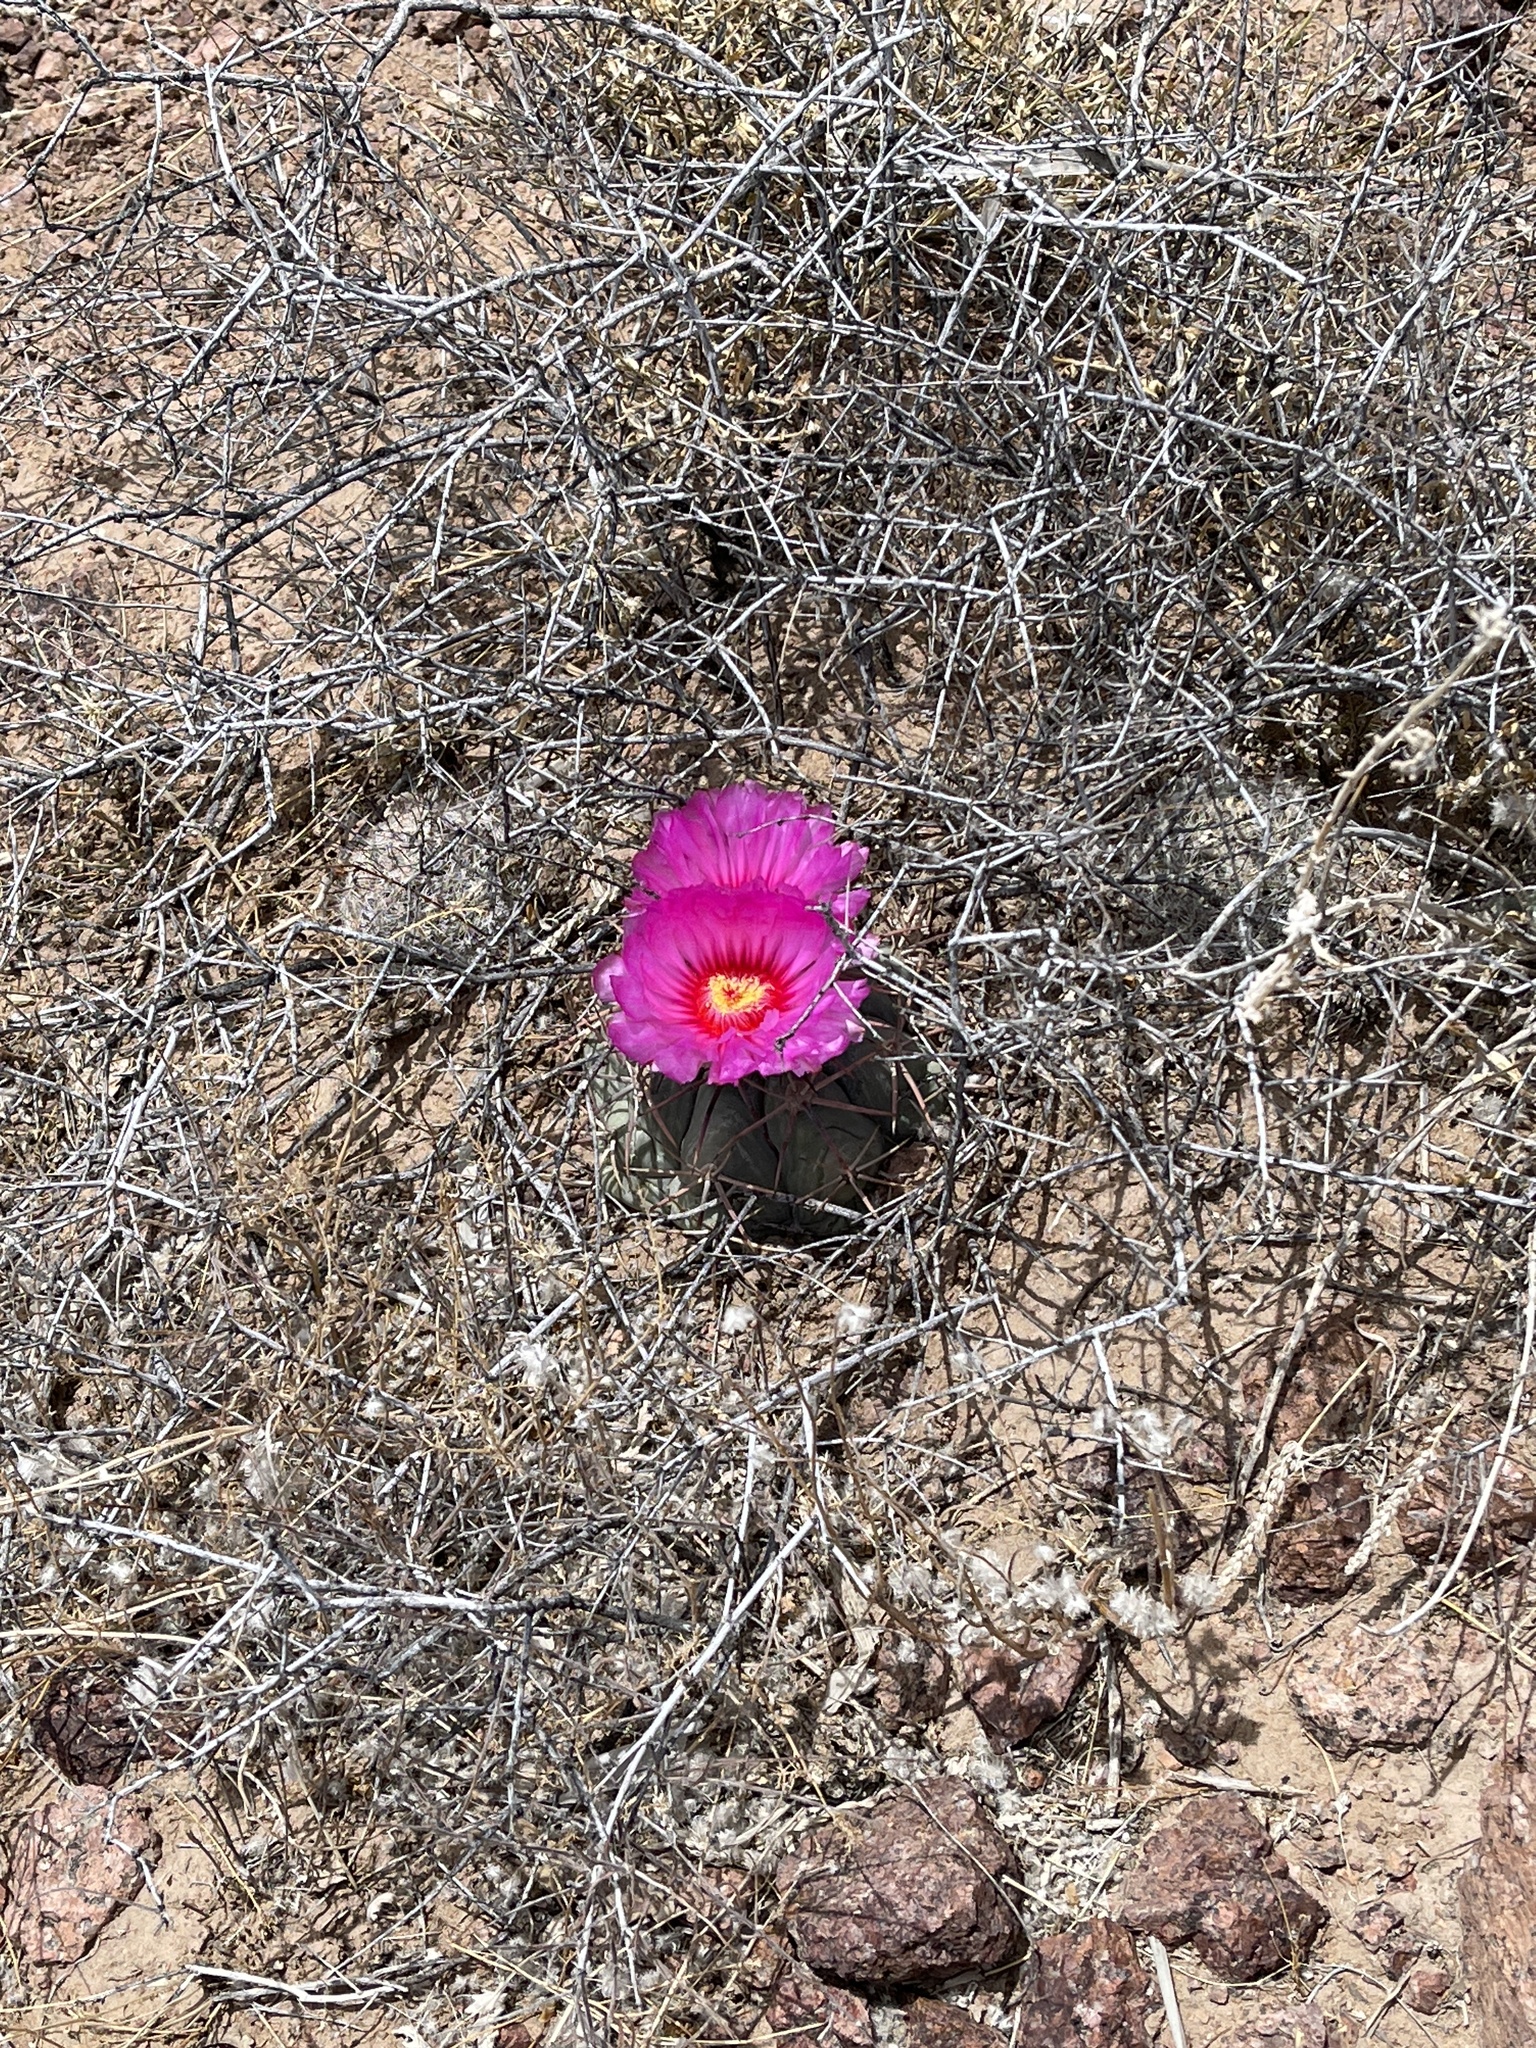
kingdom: Plantae
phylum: Tracheophyta
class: Magnoliopsida
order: Caryophyllales
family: Cactaceae
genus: Echinocactus
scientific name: Echinocactus horizonthalonius
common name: Devilshead
